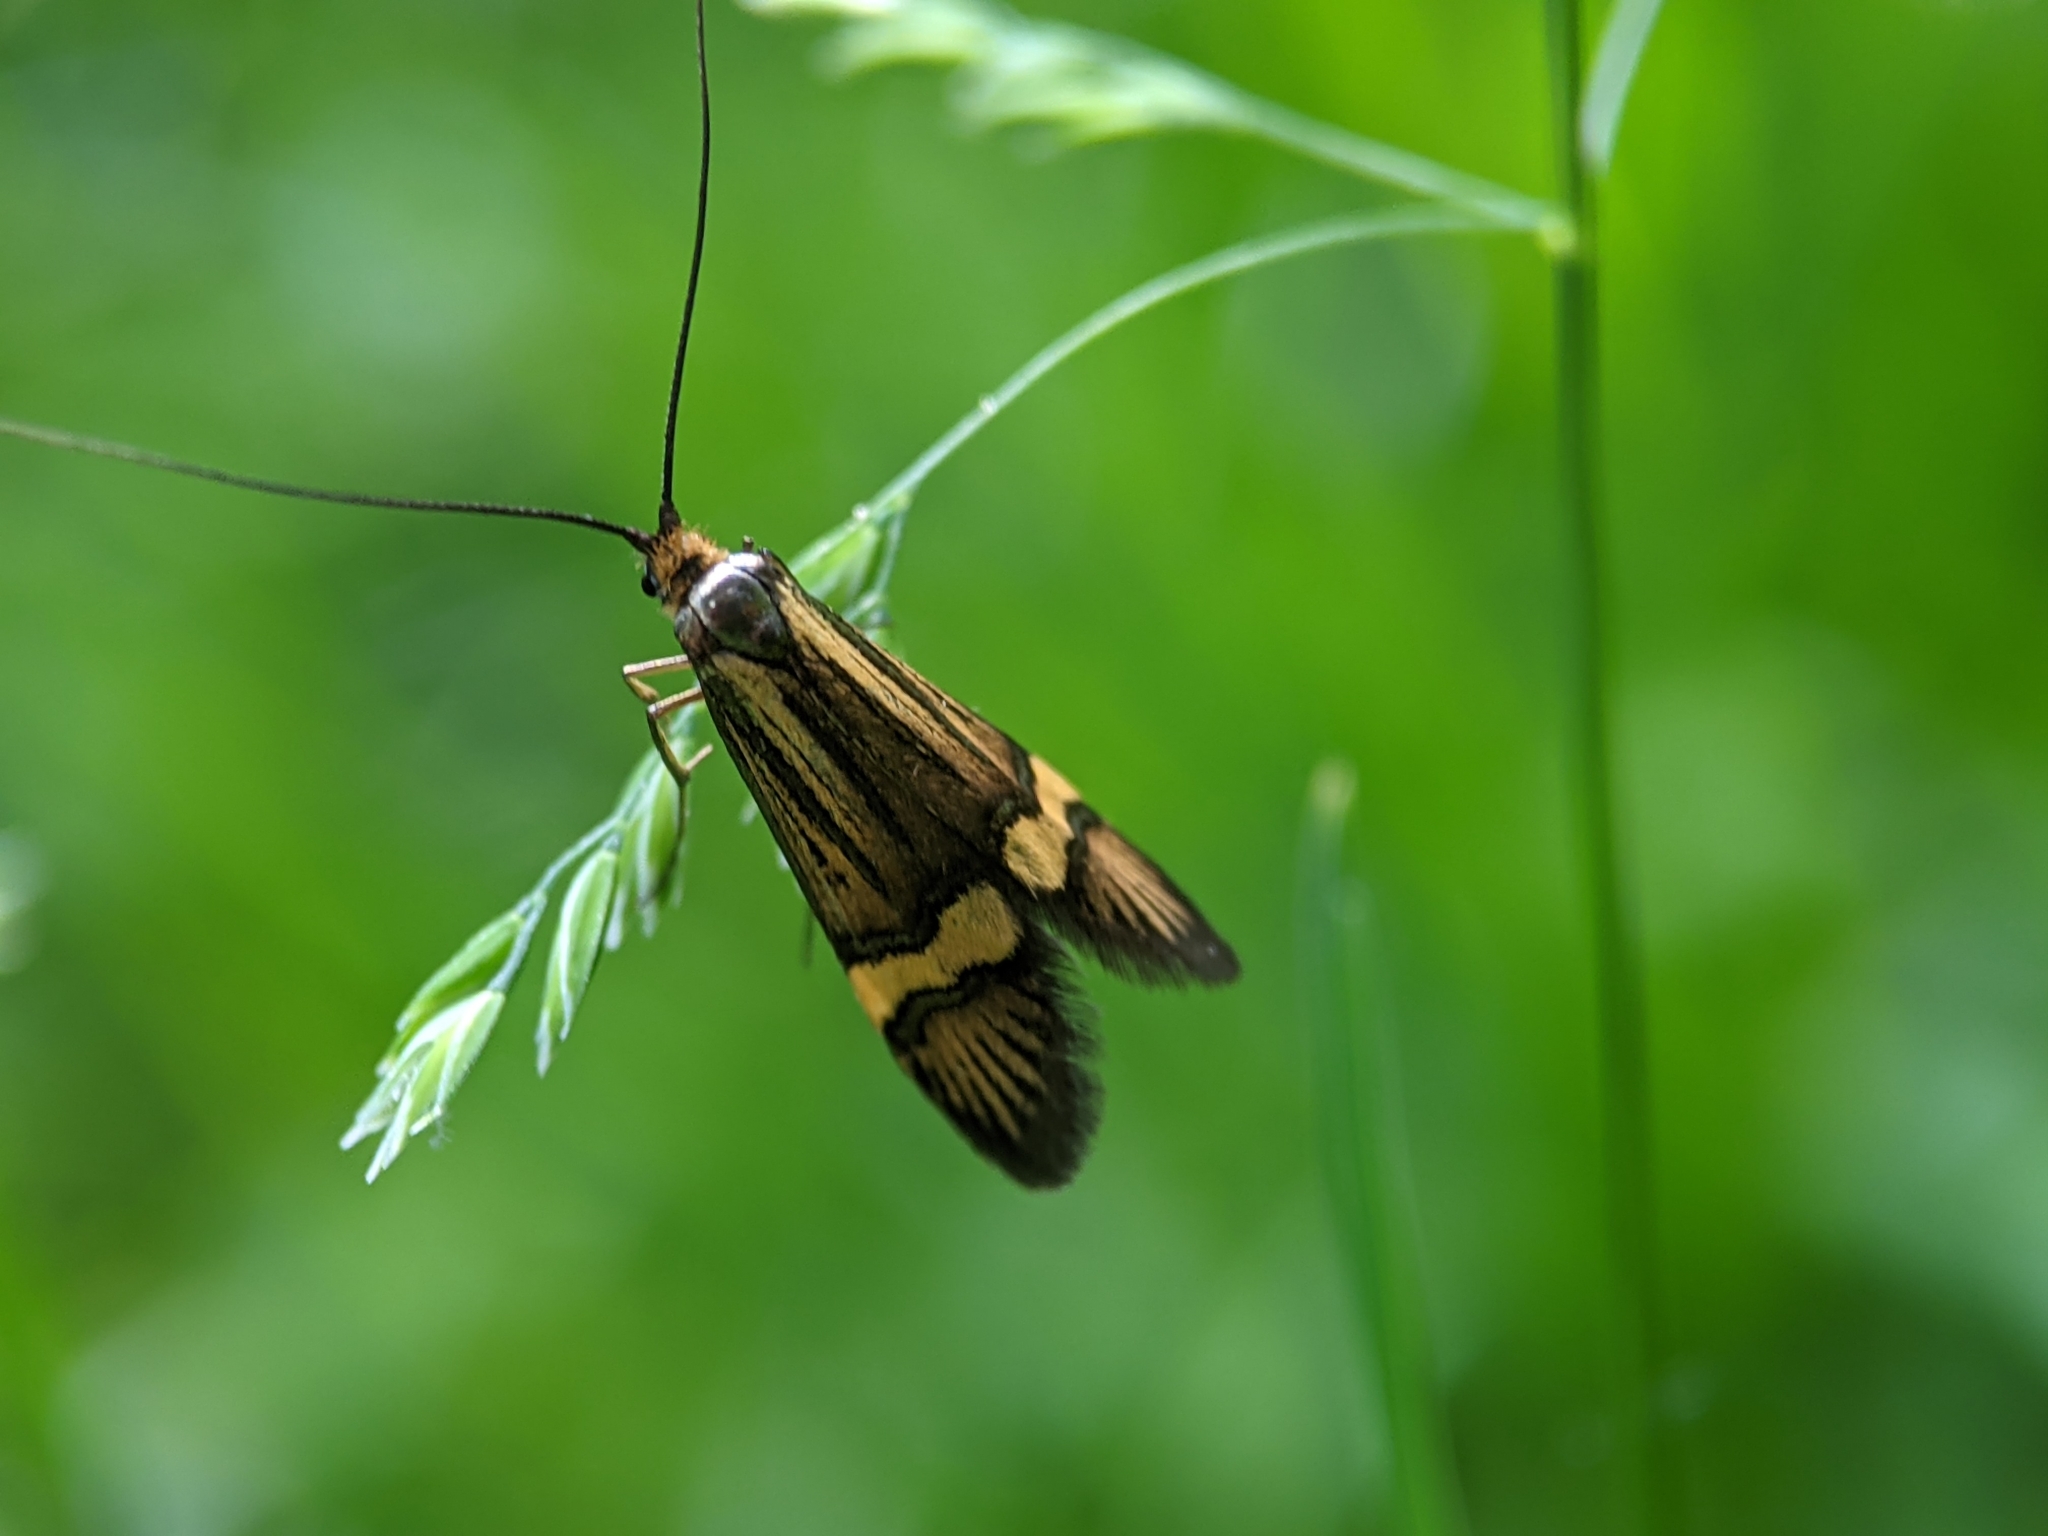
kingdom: Animalia
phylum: Arthropoda
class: Insecta
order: Lepidoptera
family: Adelidae
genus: Nemophora
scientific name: Nemophora degeerella
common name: Yellow-barred long-horn
